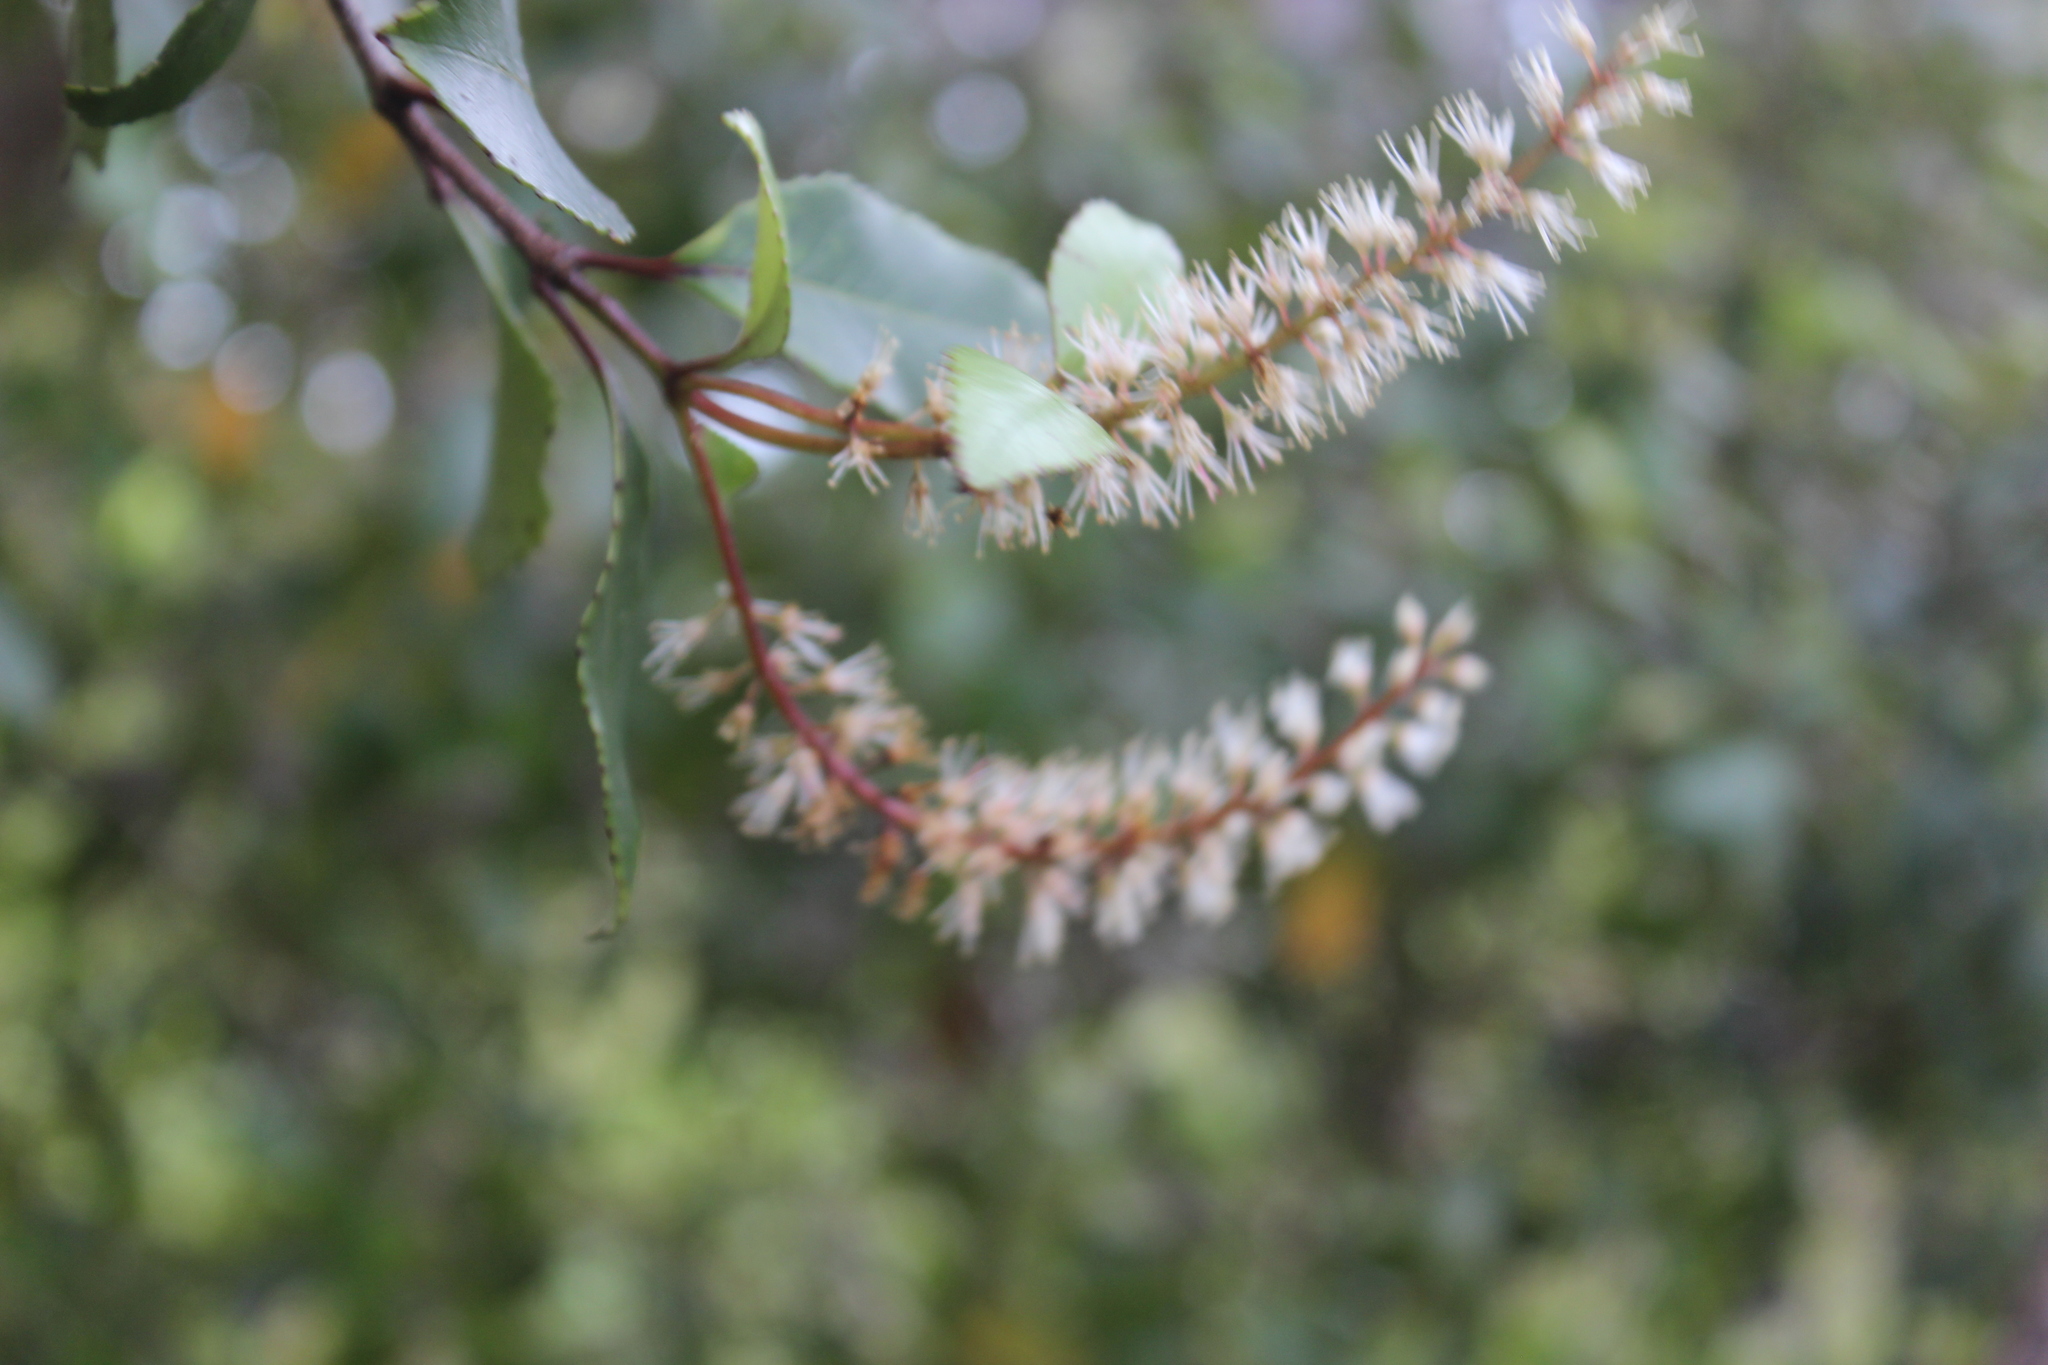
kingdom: Plantae
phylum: Tracheophyta
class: Magnoliopsida
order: Oxalidales
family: Cunoniaceae
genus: Pterophylla
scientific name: Pterophylla racemosa
